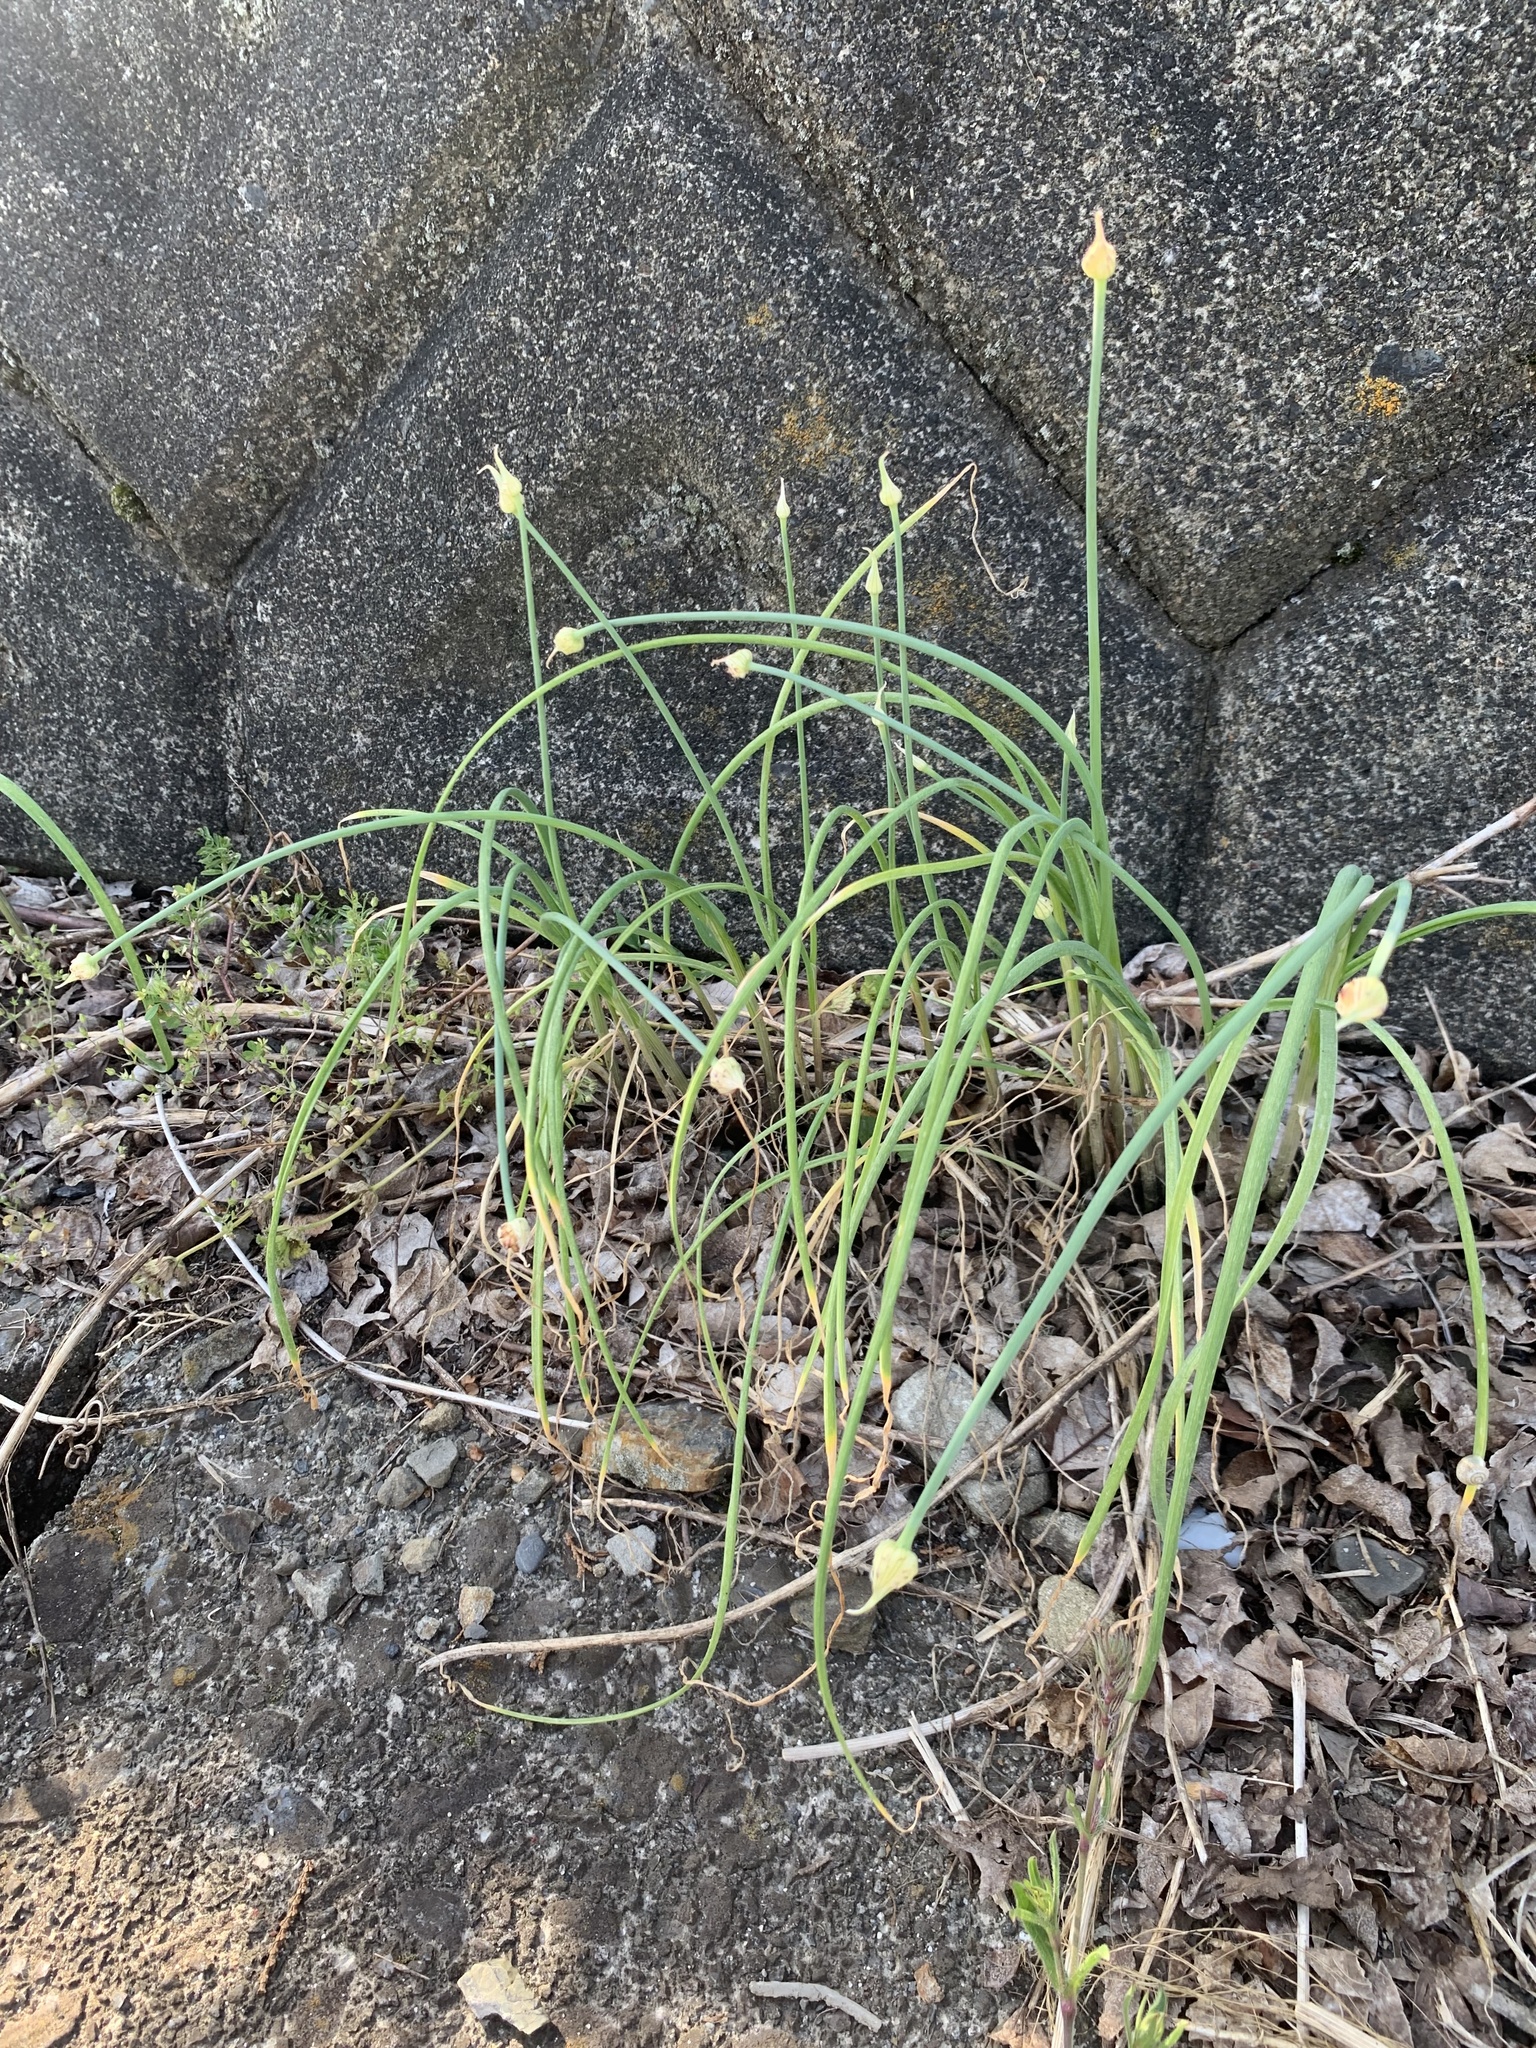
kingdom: Plantae
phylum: Tracheophyta
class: Liliopsida
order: Asparagales
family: Amaryllidaceae
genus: Allium
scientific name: Allium macrostemon
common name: Chinese garlic
